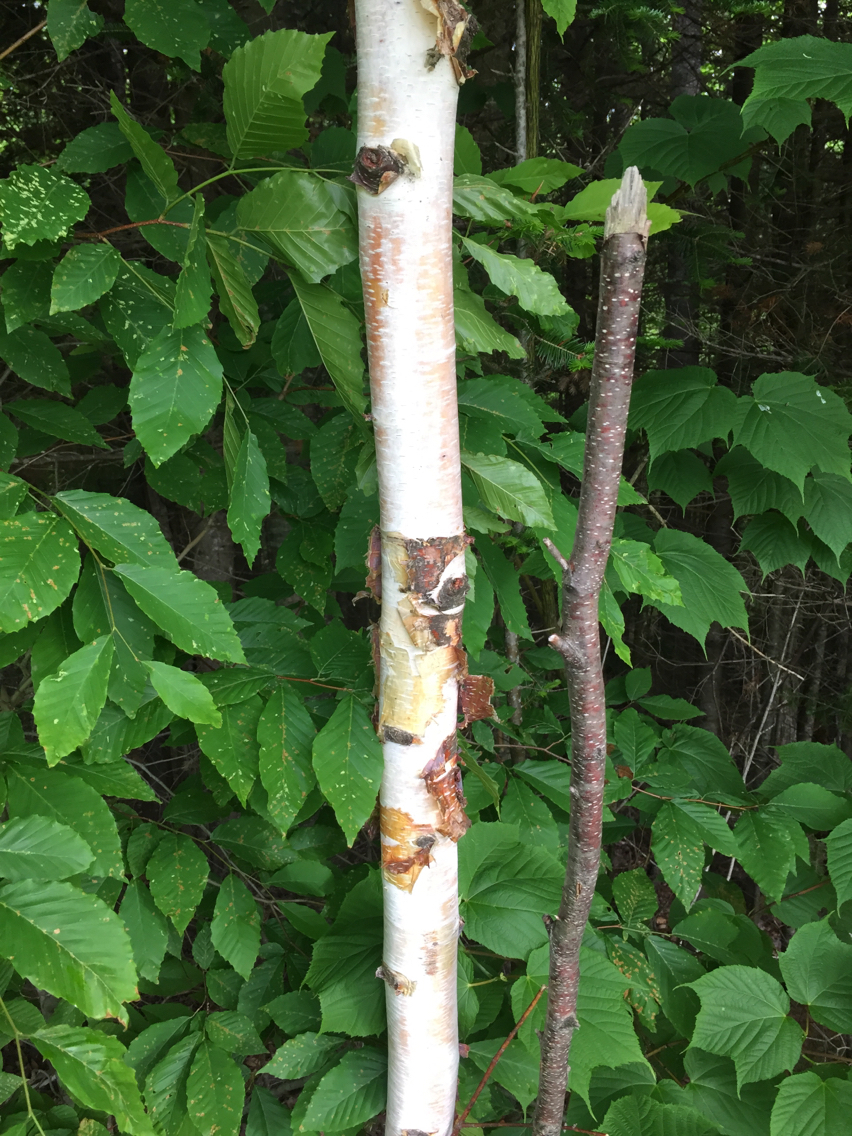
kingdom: Plantae
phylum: Tracheophyta
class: Magnoliopsida
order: Fagales
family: Betulaceae
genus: Betula
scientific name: Betula papyrifera
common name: Paper birch
